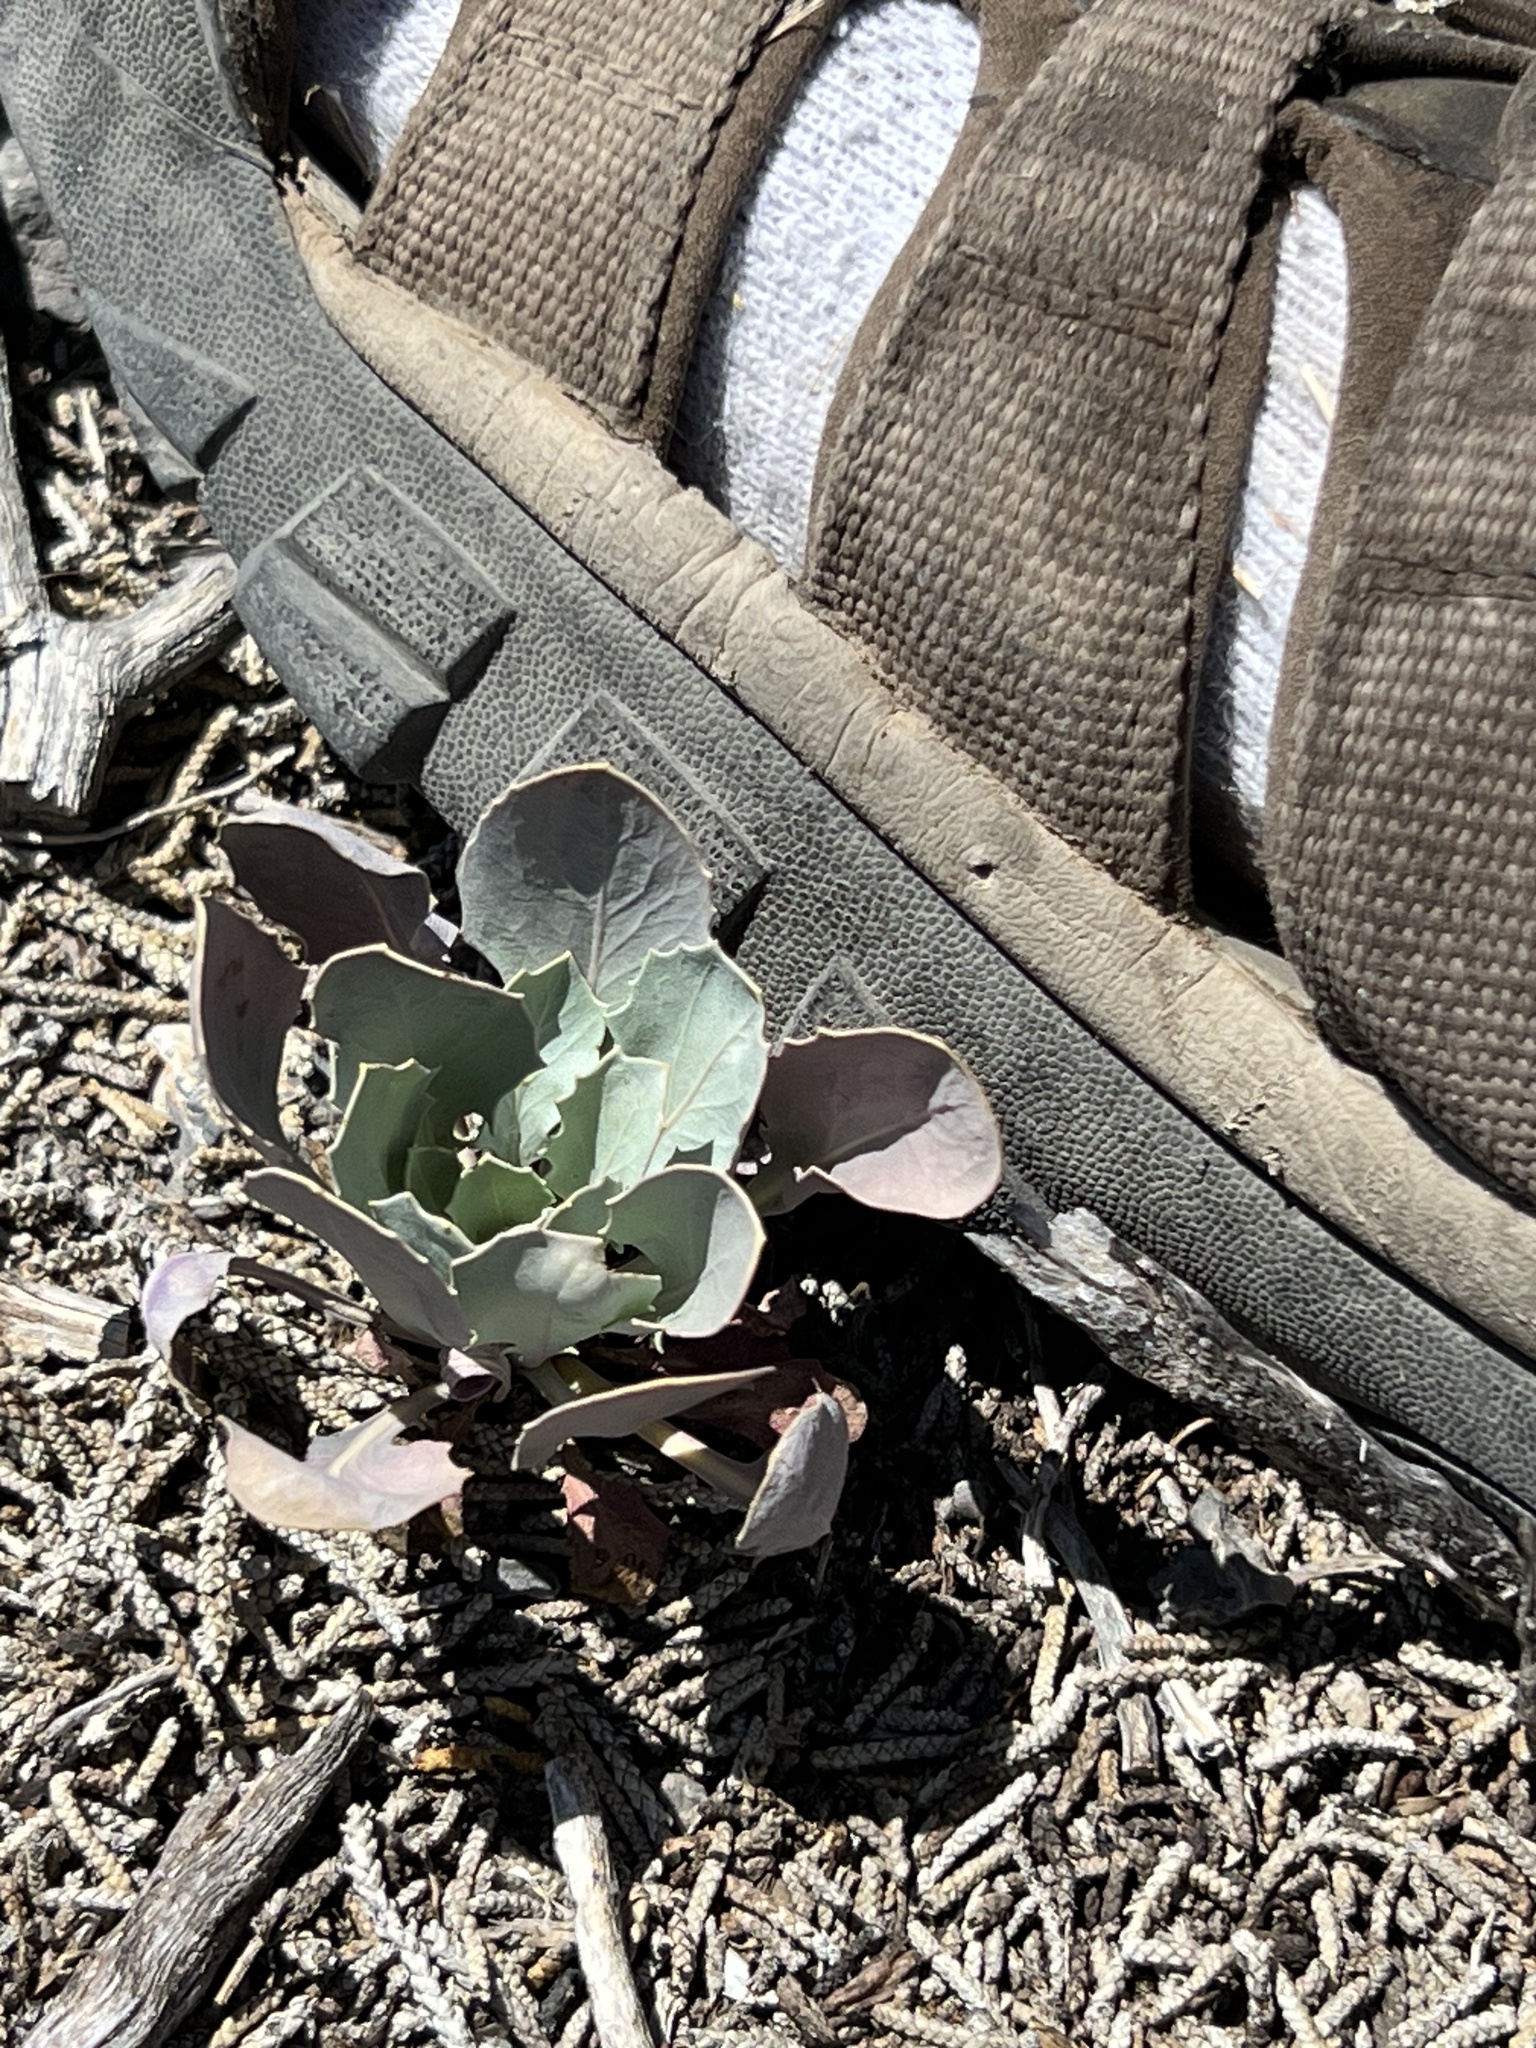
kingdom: Plantae
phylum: Tracheophyta
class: Magnoliopsida
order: Brassicales
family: Brassicaceae
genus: Streptanthus
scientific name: Streptanthus cordatus
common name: Heart-leaf jewel-flower
